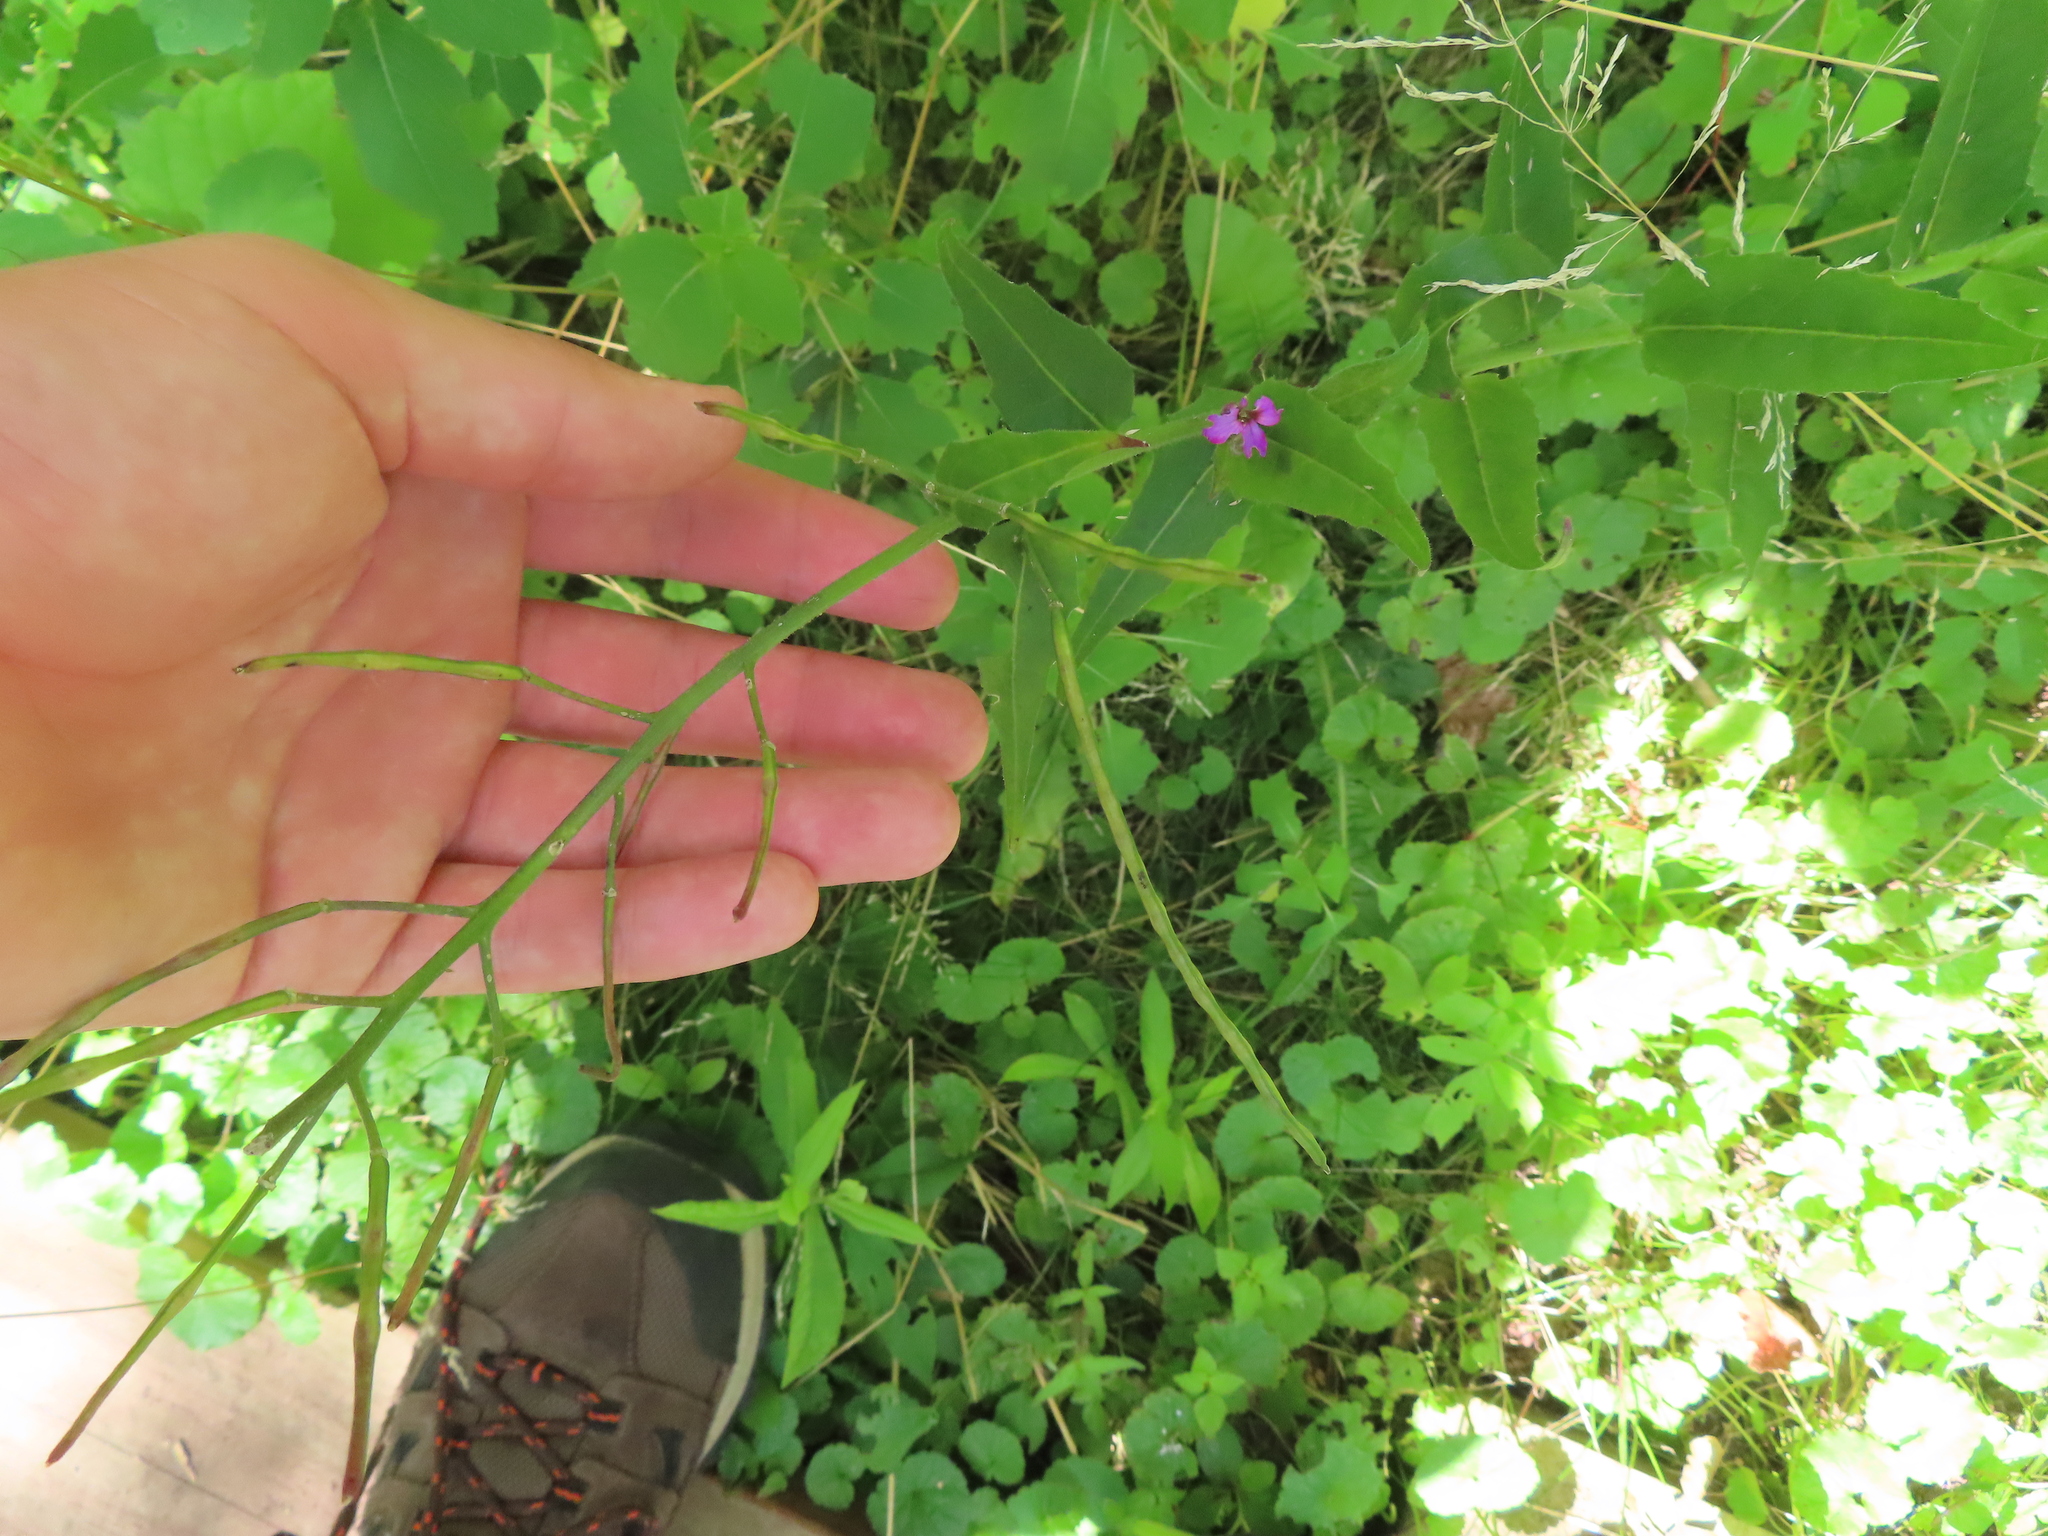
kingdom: Plantae
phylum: Tracheophyta
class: Magnoliopsida
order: Brassicales
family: Brassicaceae
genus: Hesperis
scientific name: Hesperis matronalis
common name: Dame's-violet
